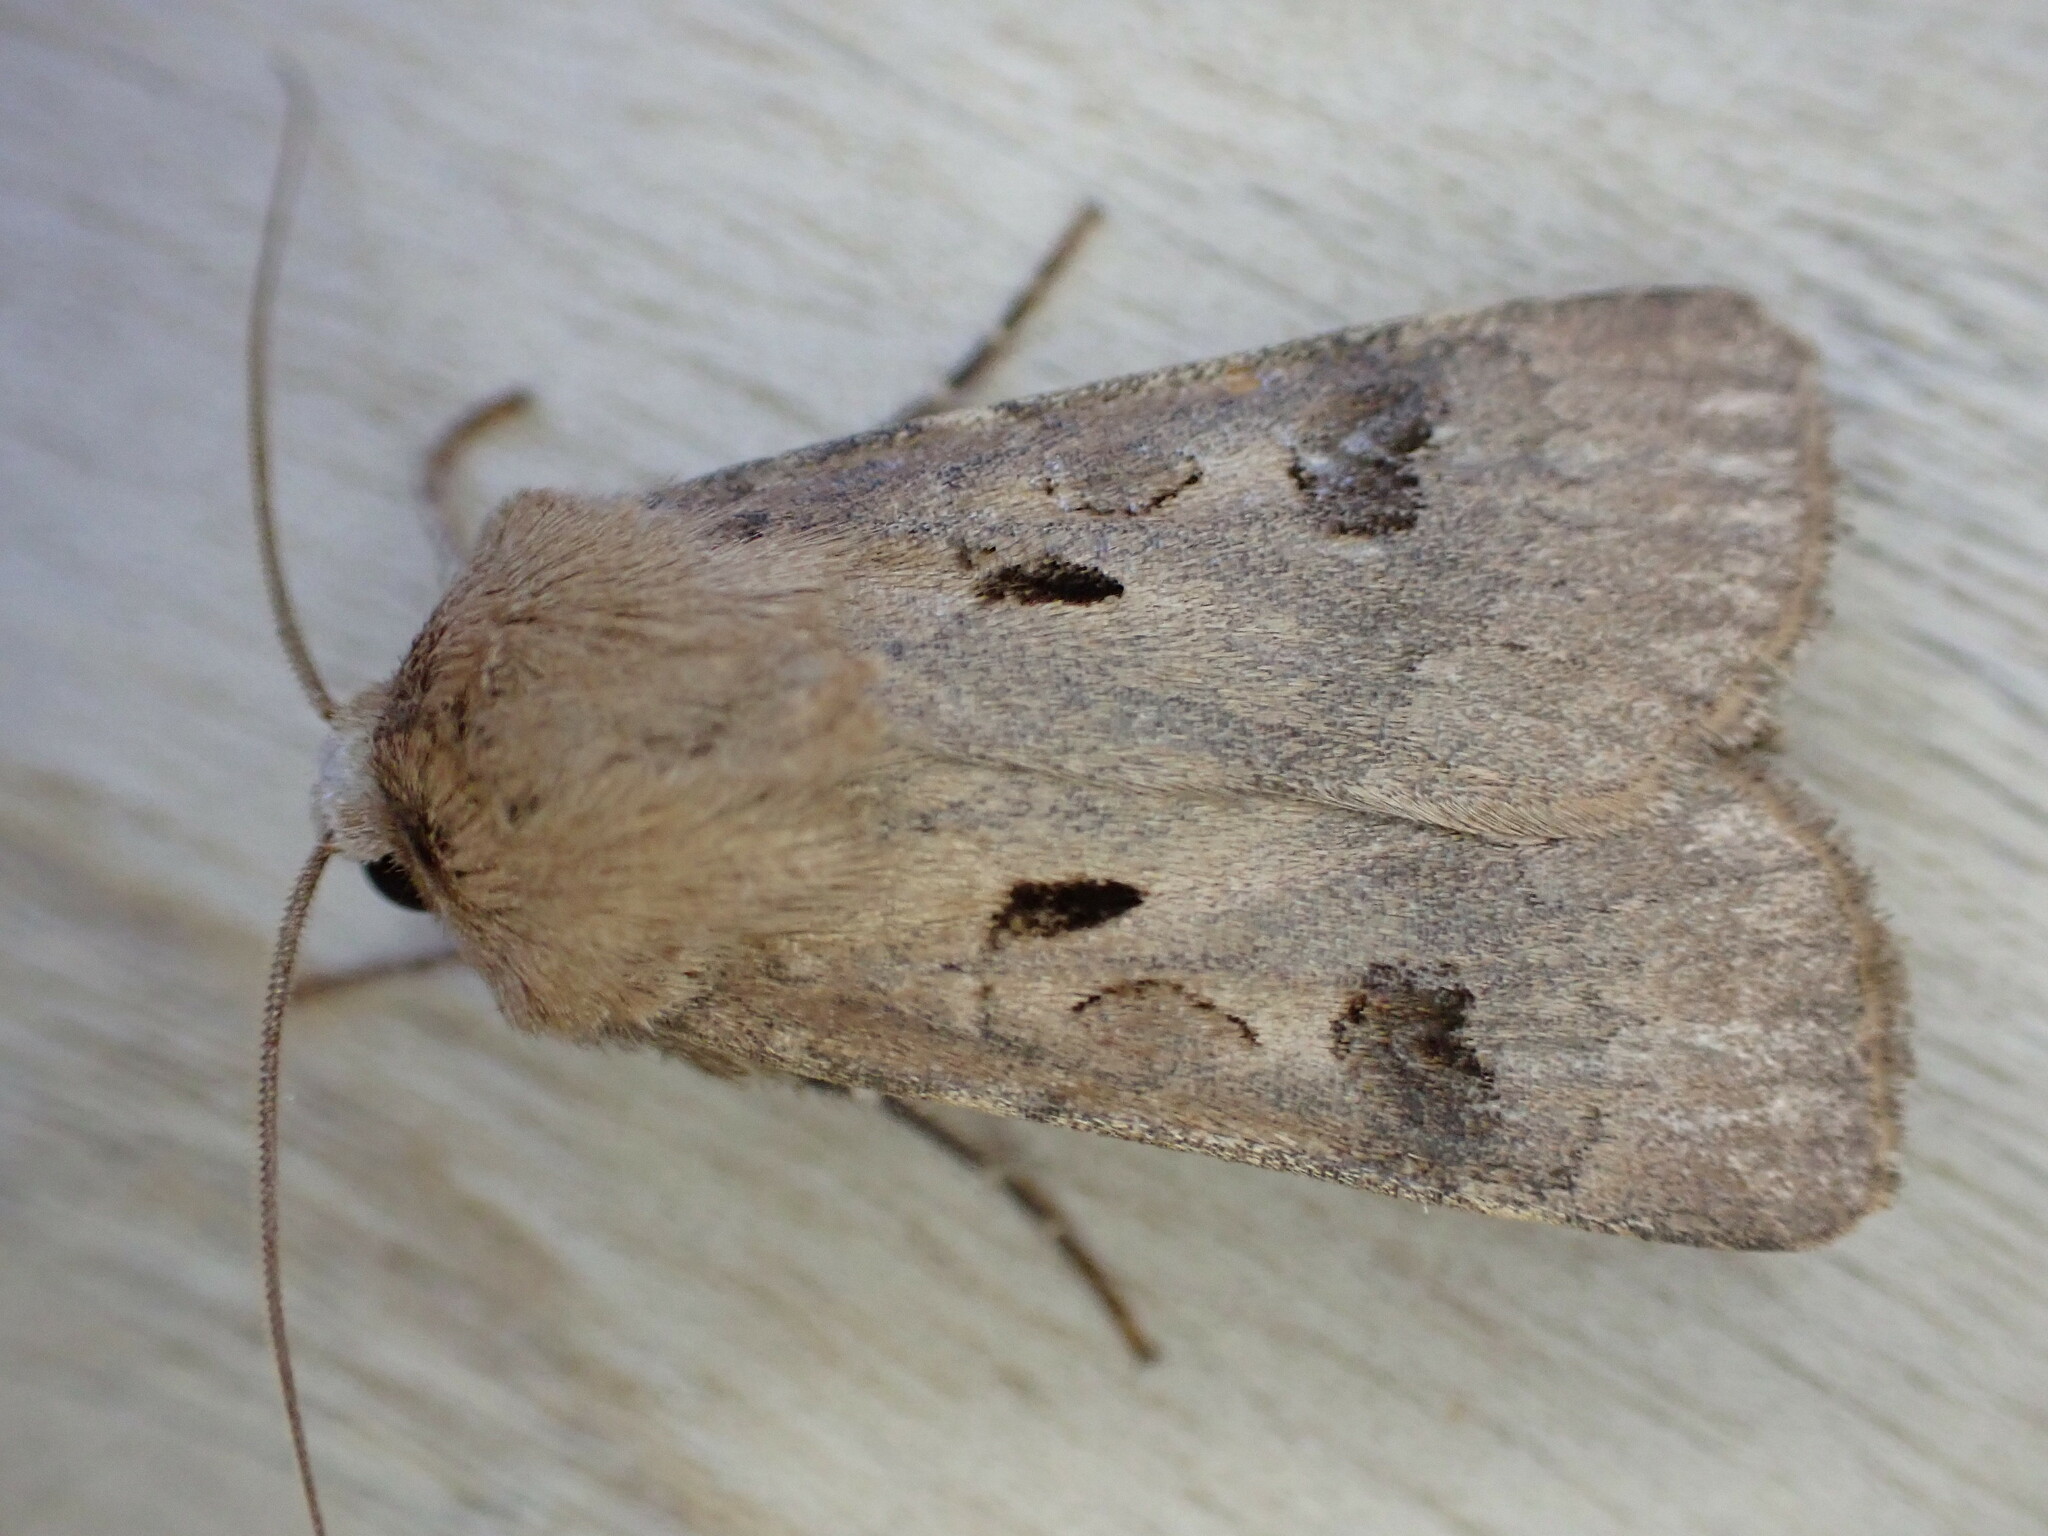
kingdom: Animalia
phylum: Arthropoda
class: Insecta
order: Lepidoptera
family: Noctuidae
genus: Agrotis
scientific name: Agrotis exclamationis
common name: Heart and dart
